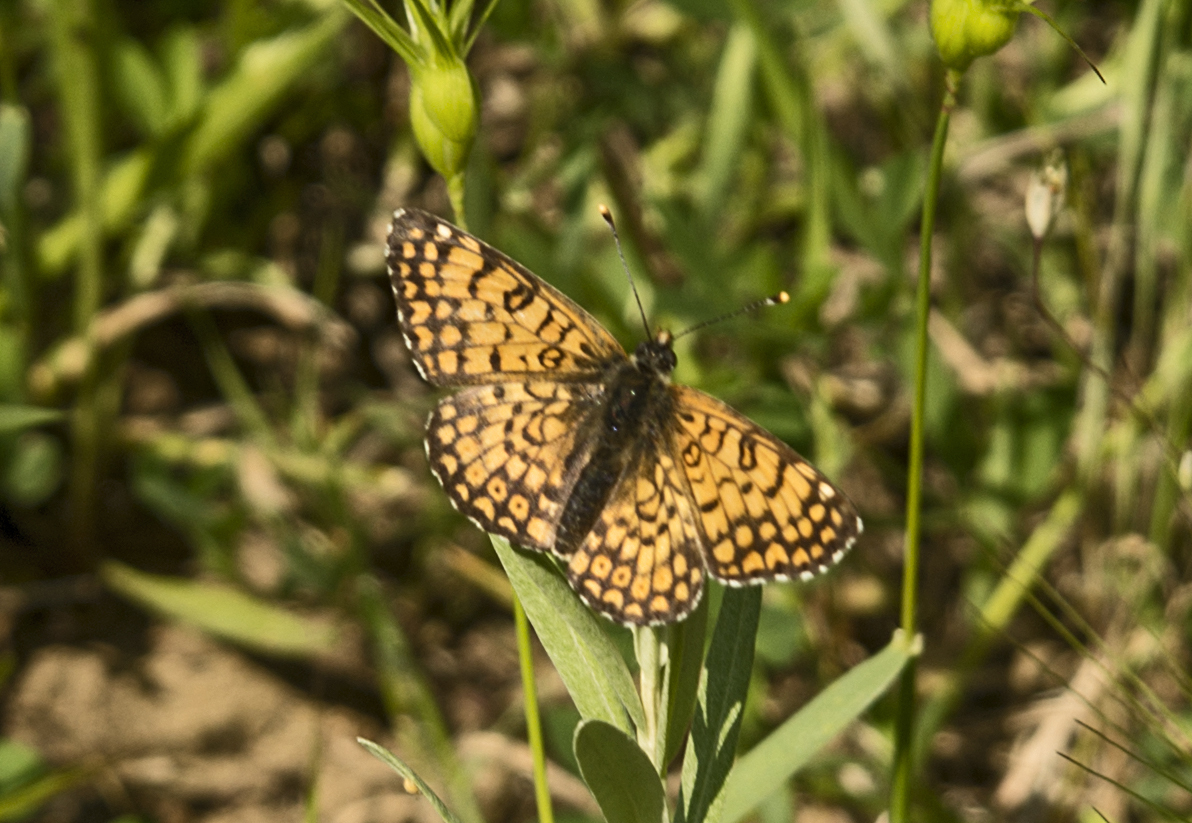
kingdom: Animalia
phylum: Arthropoda
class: Insecta
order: Lepidoptera
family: Nymphalidae
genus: Melitaea
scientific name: Melitaea cinxia
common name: Glanville fritillary
